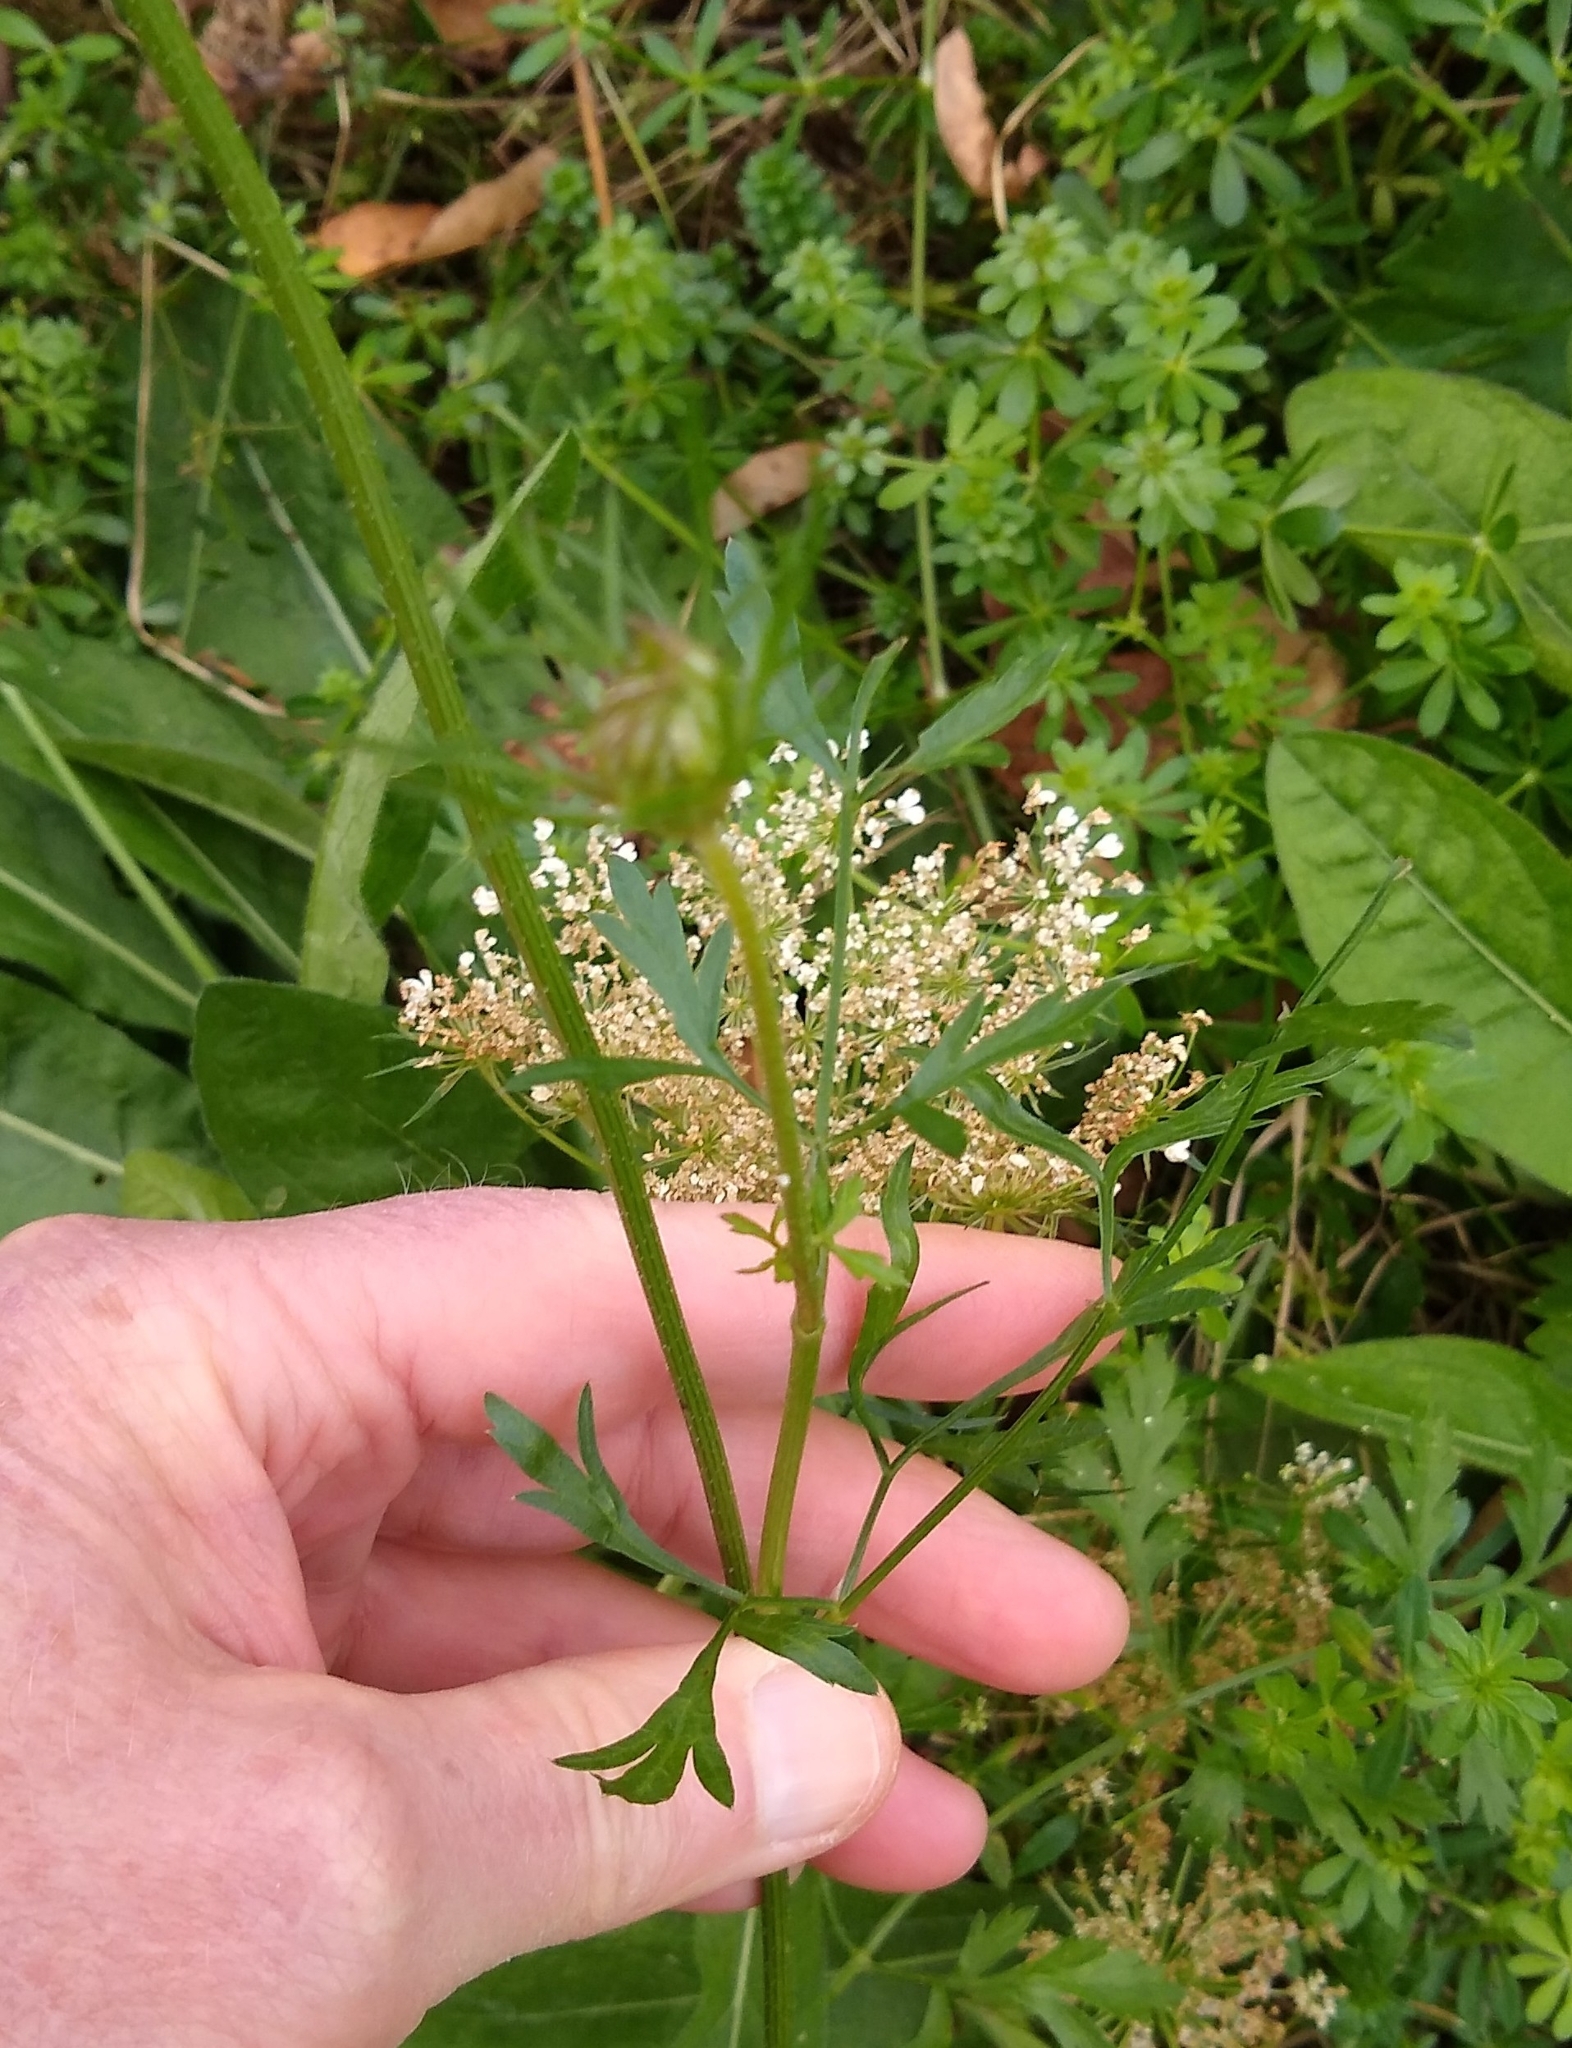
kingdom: Plantae
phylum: Tracheophyta
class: Magnoliopsida
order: Apiales
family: Apiaceae
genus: Daucus
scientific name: Daucus carota
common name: Wild carrot
